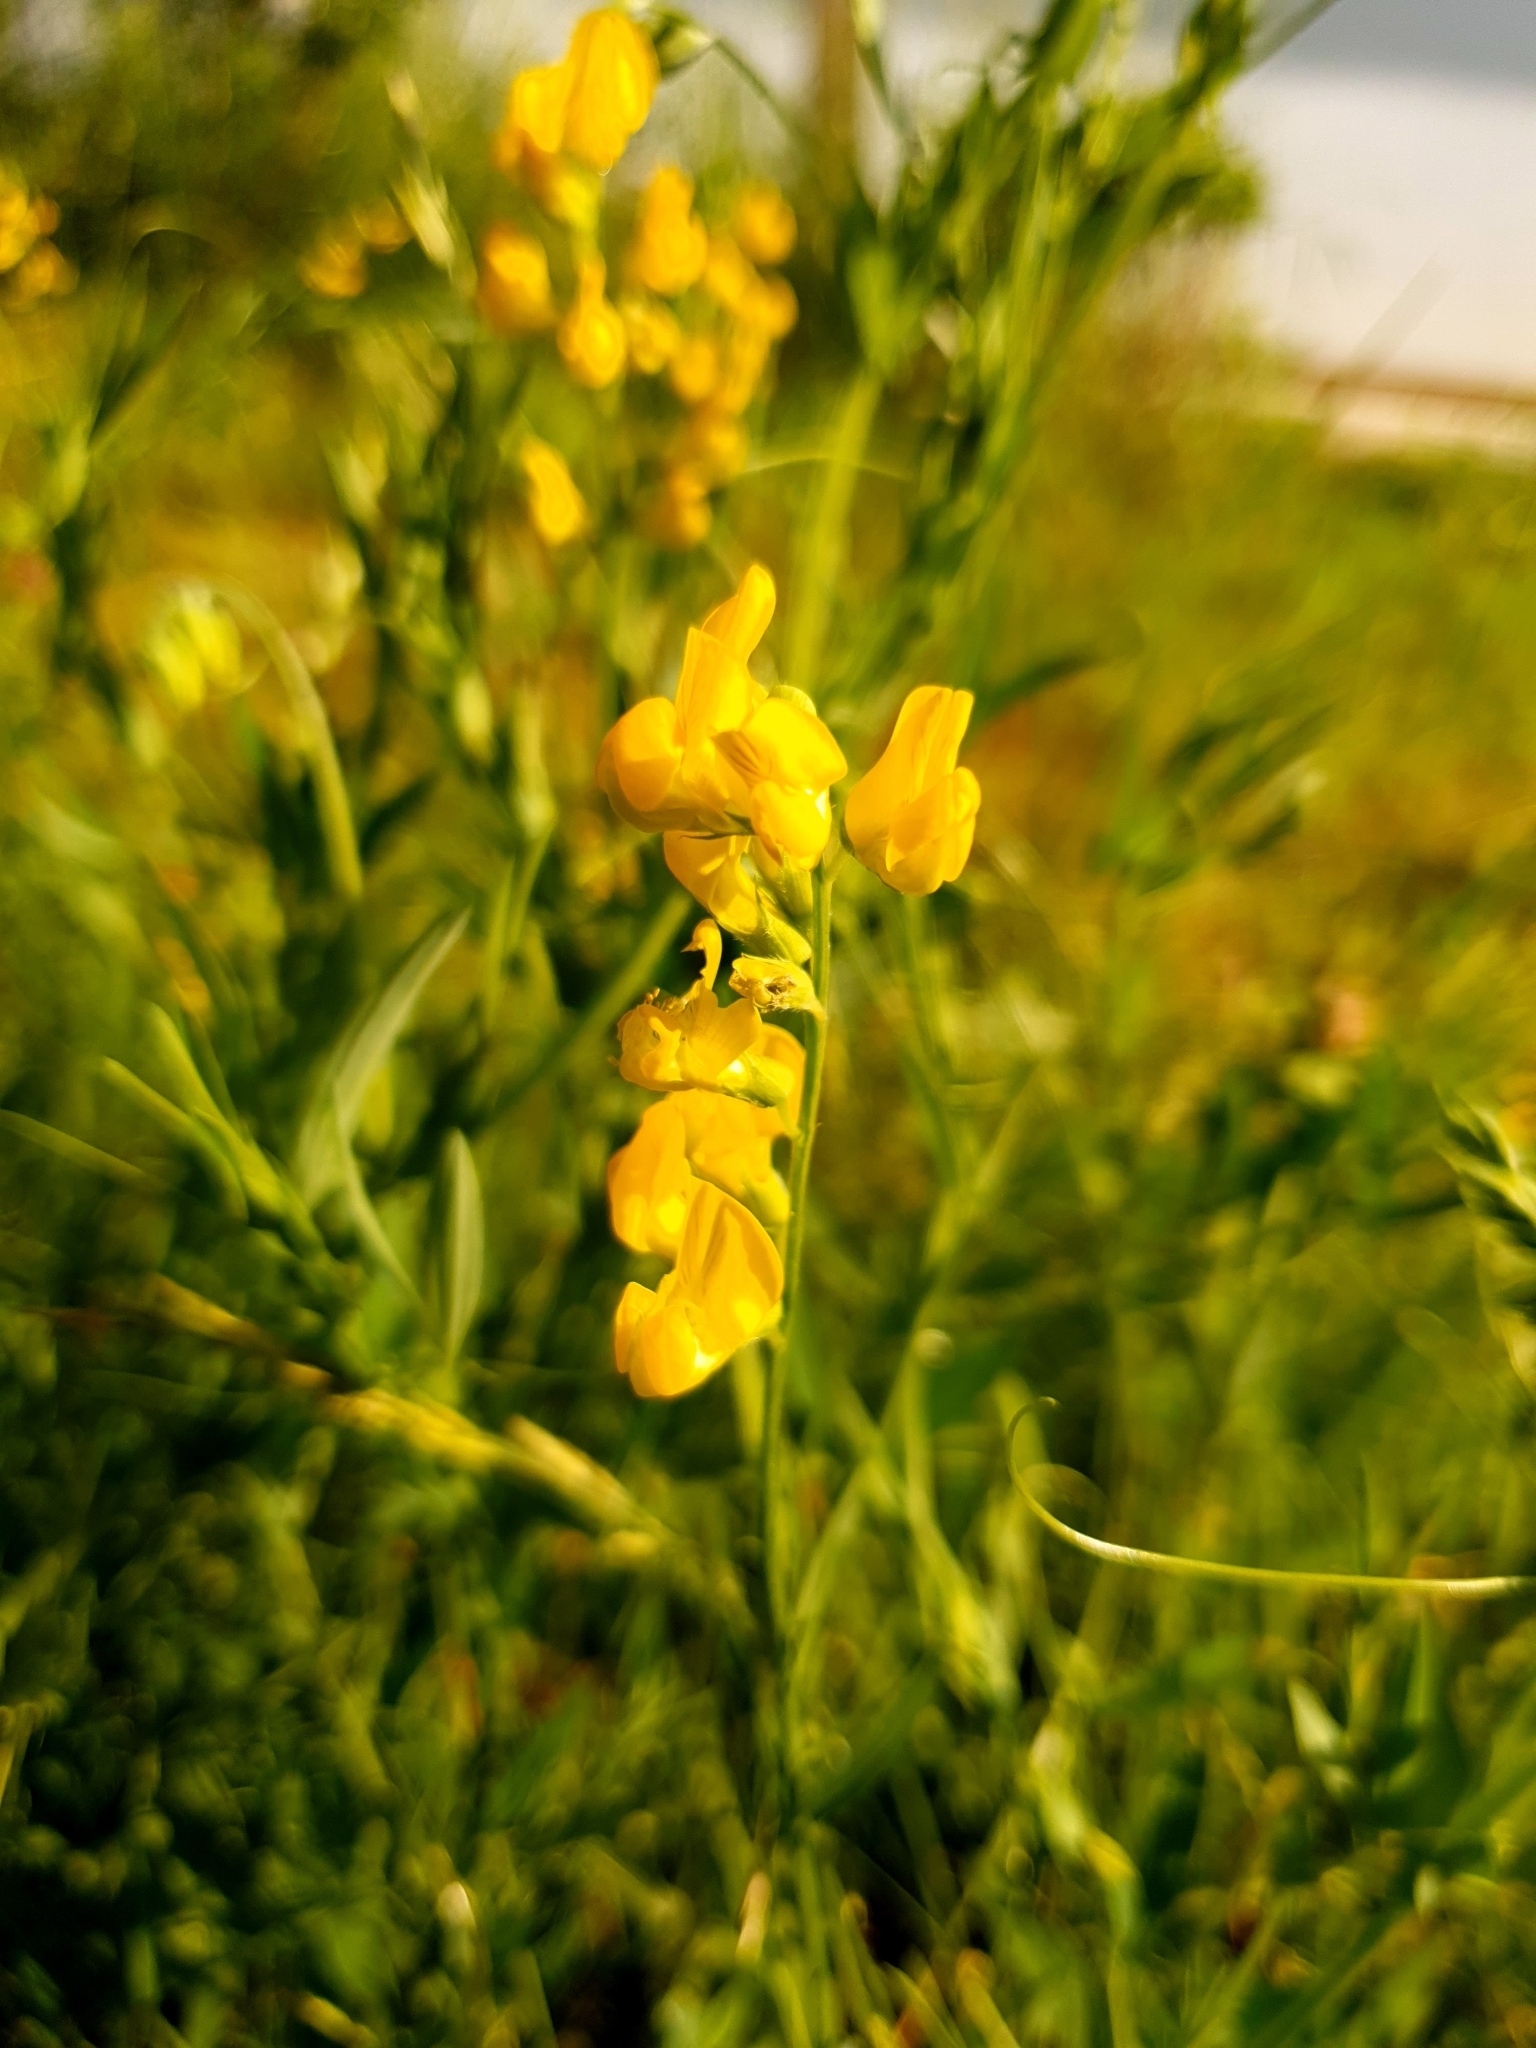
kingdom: Plantae
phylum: Tracheophyta
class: Magnoliopsida
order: Fabales
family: Fabaceae
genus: Lathyrus
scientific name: Lathyrus pratensis
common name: Meadow vetchling
